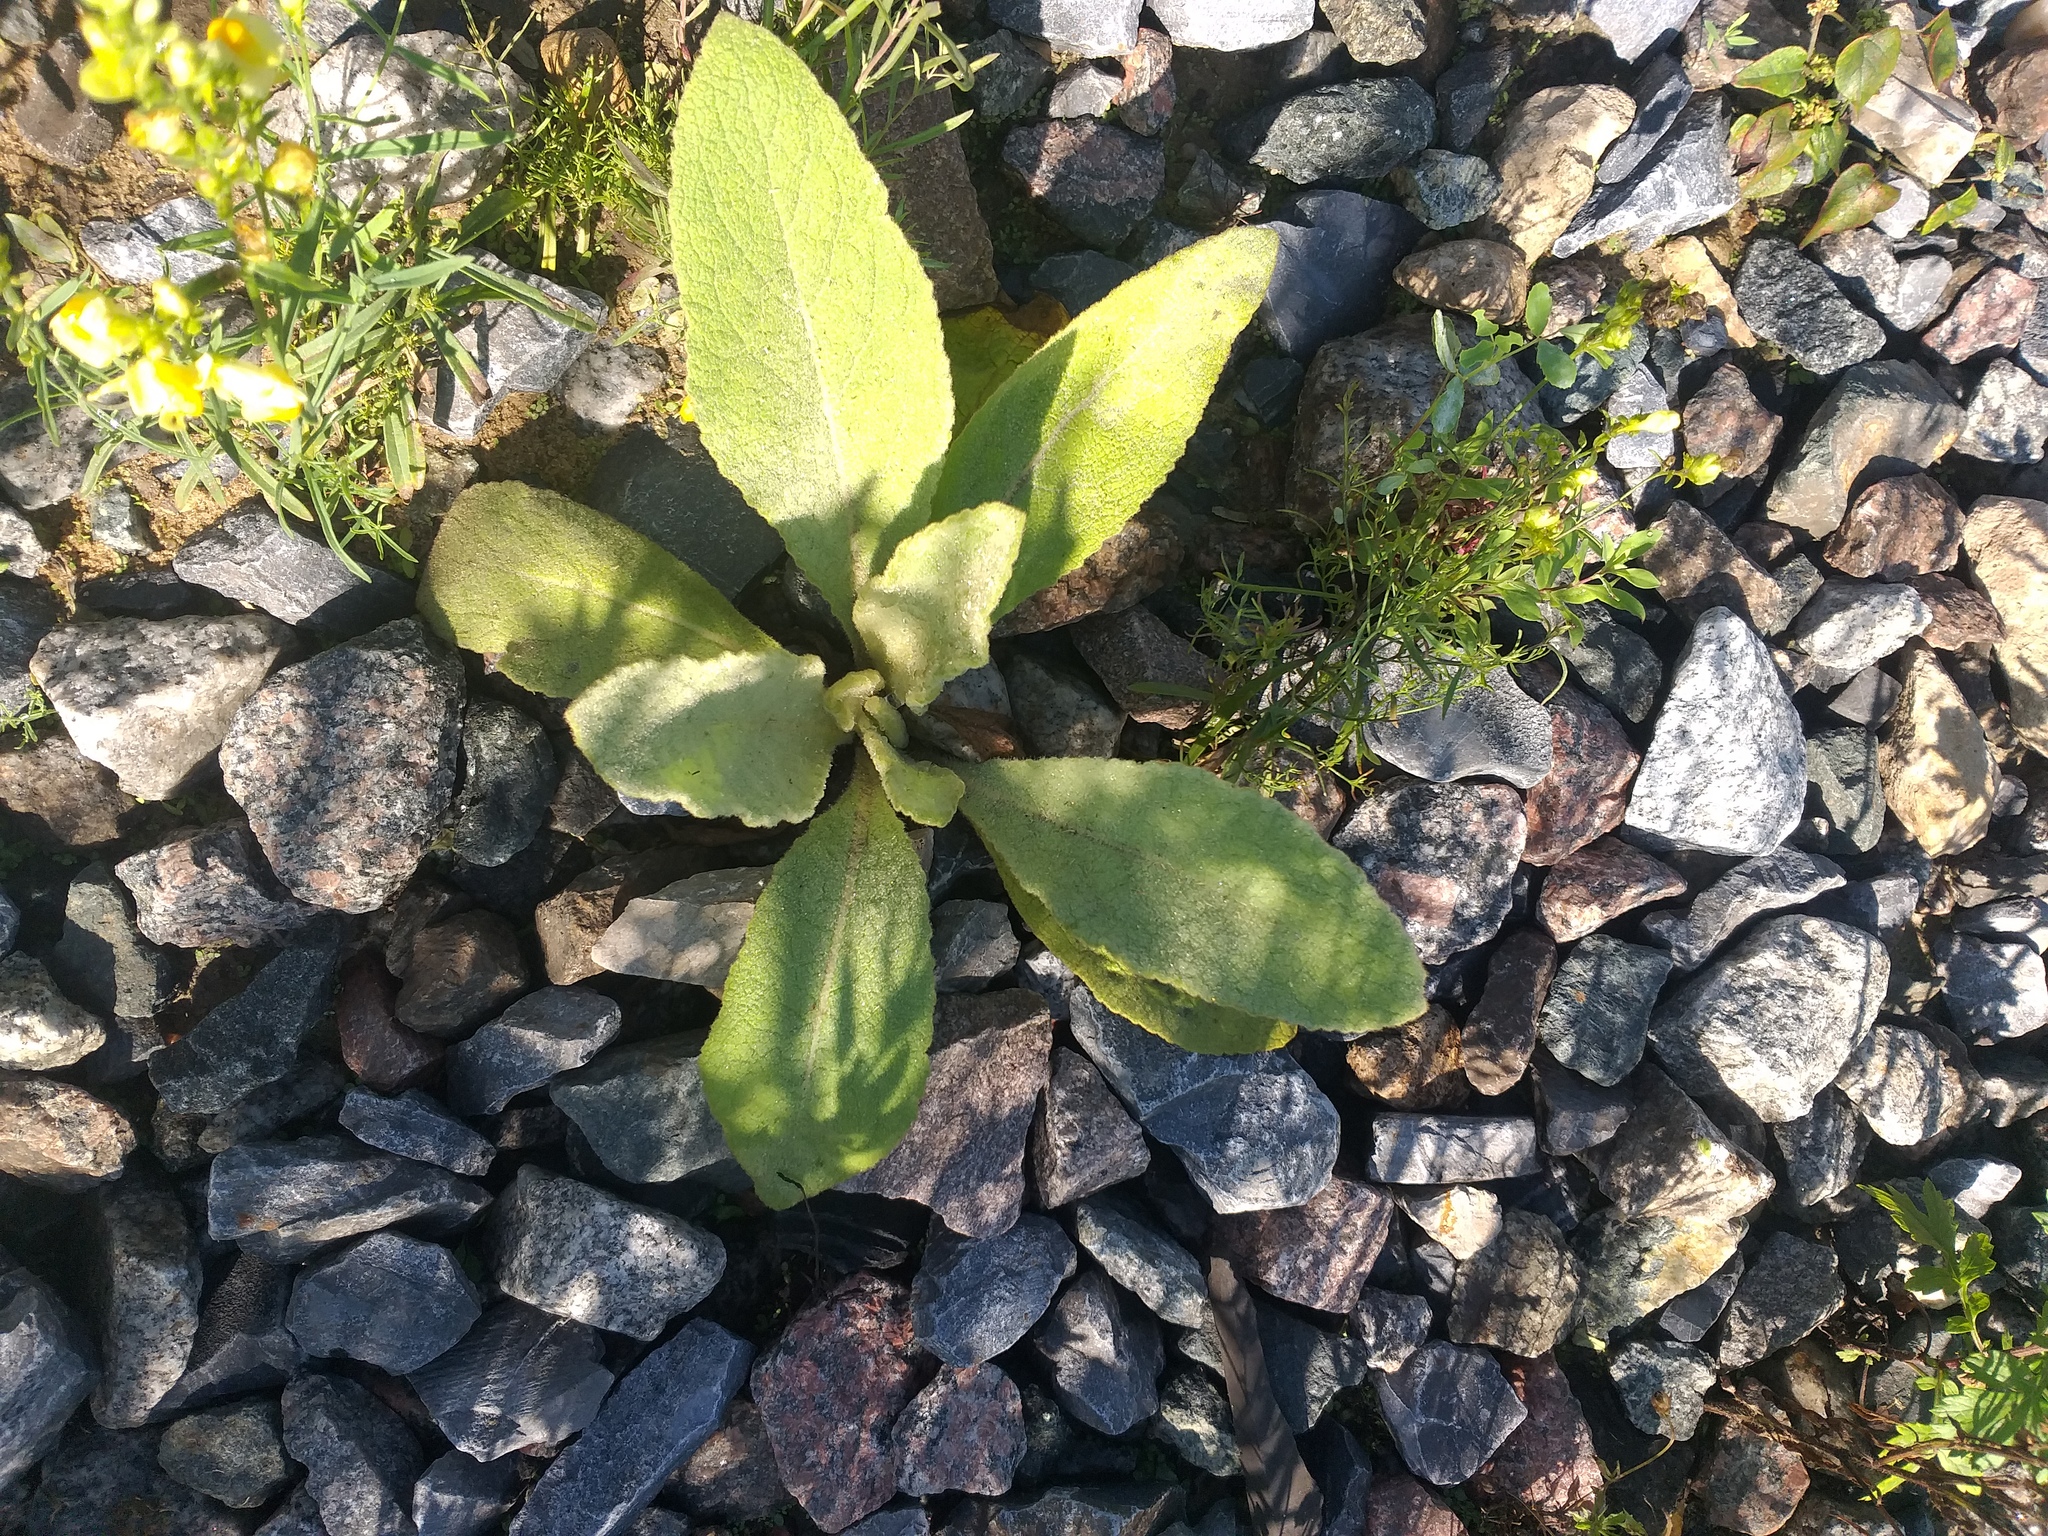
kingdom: Plantae
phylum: Tracheophyta
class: Magnoliopsida
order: Lamiales
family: Scrophulariaceae
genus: Verbascum
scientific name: Verbascum thapsus
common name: Common mullein
